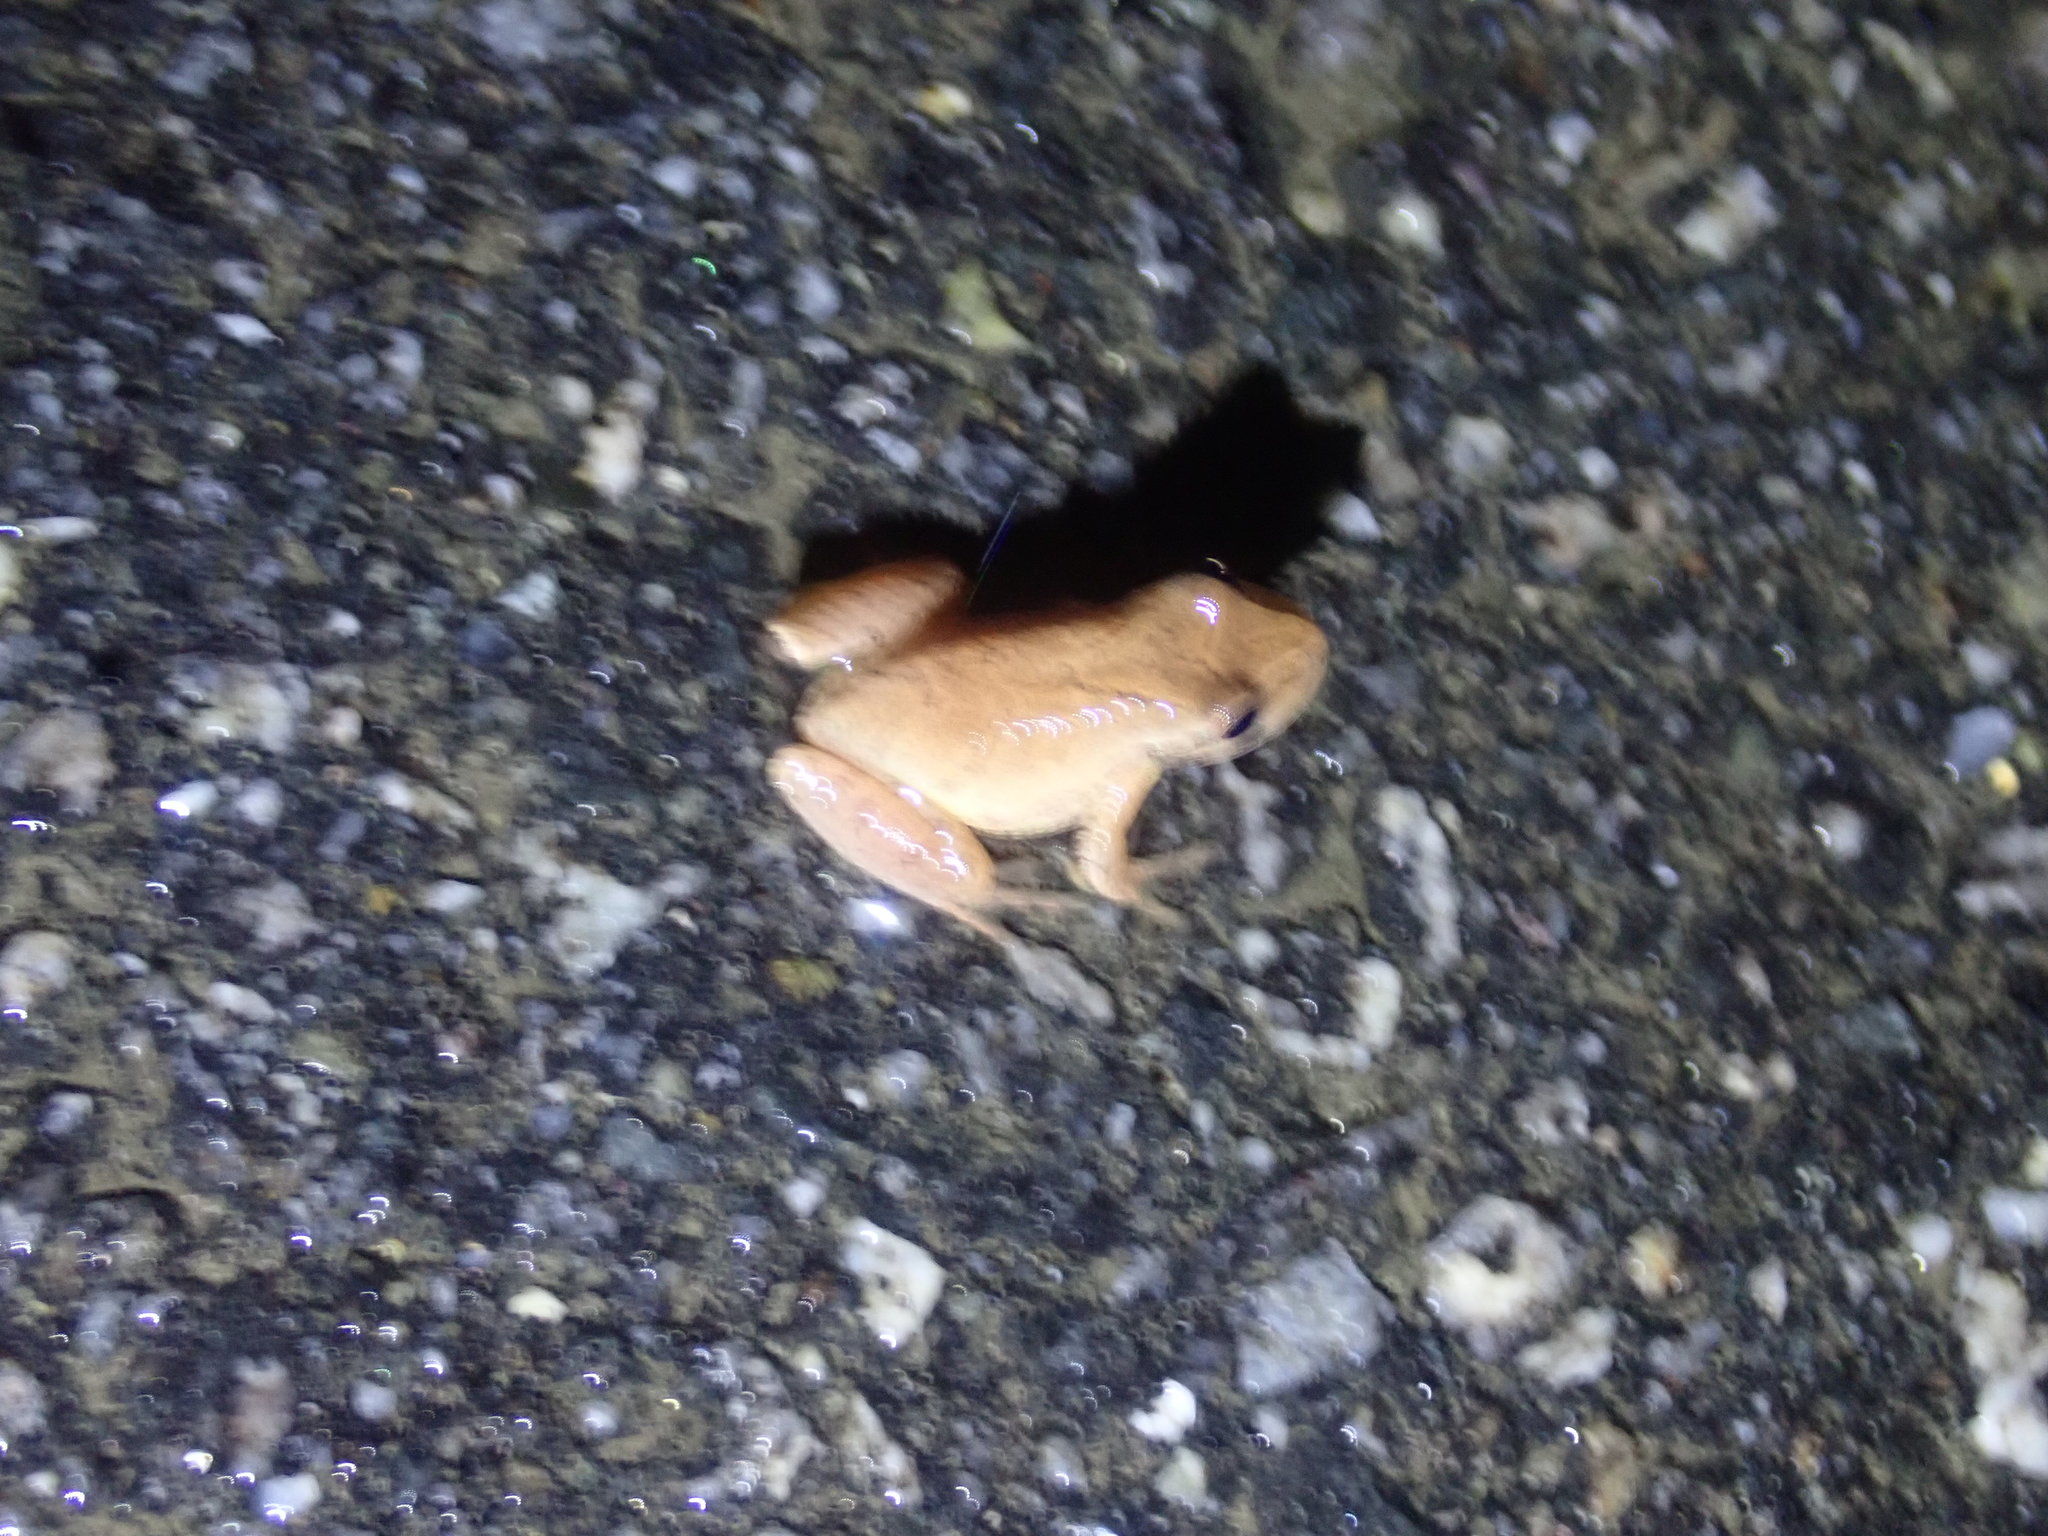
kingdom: Animalia
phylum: Chordata
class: Amphibia
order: Anura
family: Hylidae
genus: Pseudacris
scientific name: Pseudacris crucifer
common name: Spring peeper
